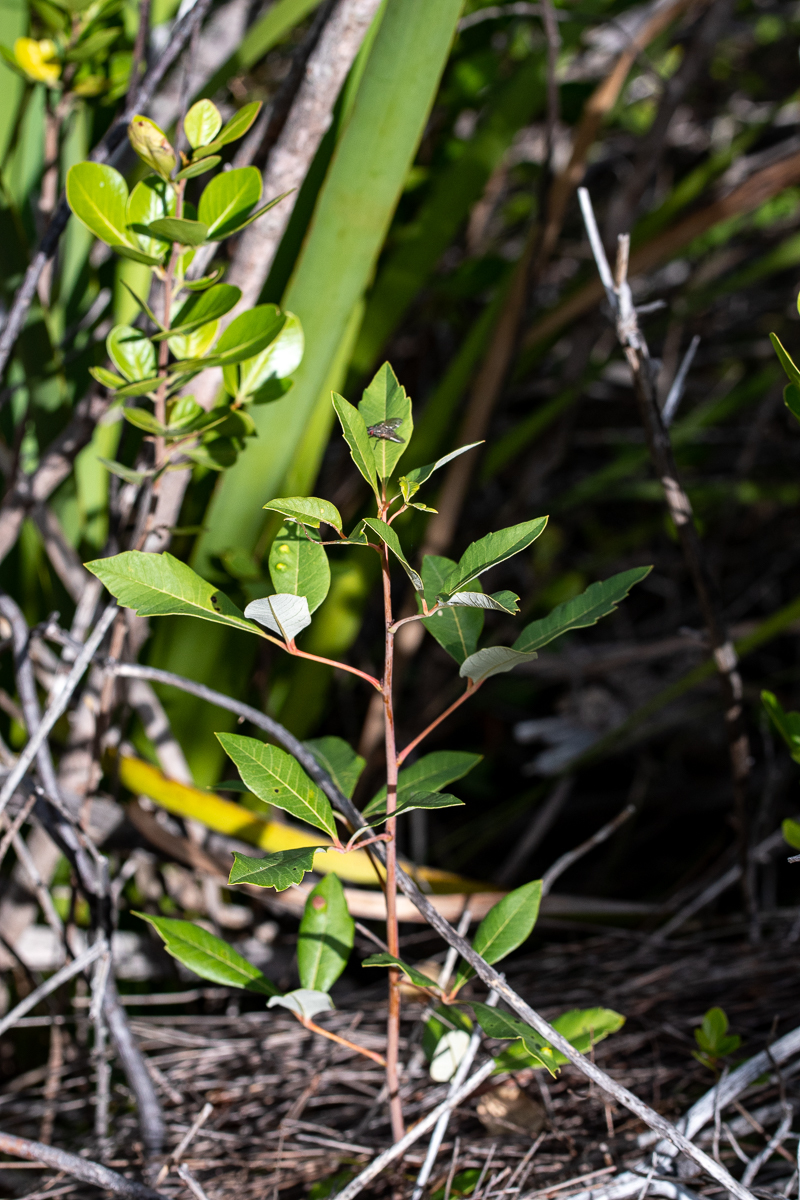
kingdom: Plantae
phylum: Tracheophyta
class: Magnoliopsida
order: Sapindales
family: Anacardiaceae
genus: Searsia
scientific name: Searsia tomentosa
